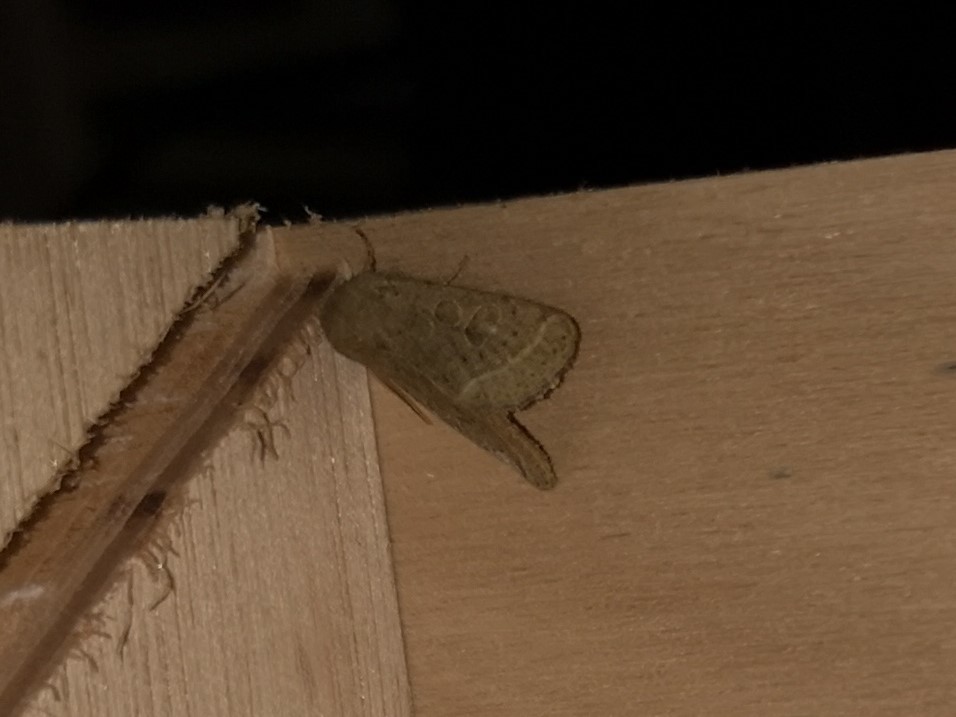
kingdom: Animalia
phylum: Arthropoda
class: Insecta
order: Lepidoptera
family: Noctuidae
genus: Orthosia
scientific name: Orthosia cerasi
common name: Common quaker
